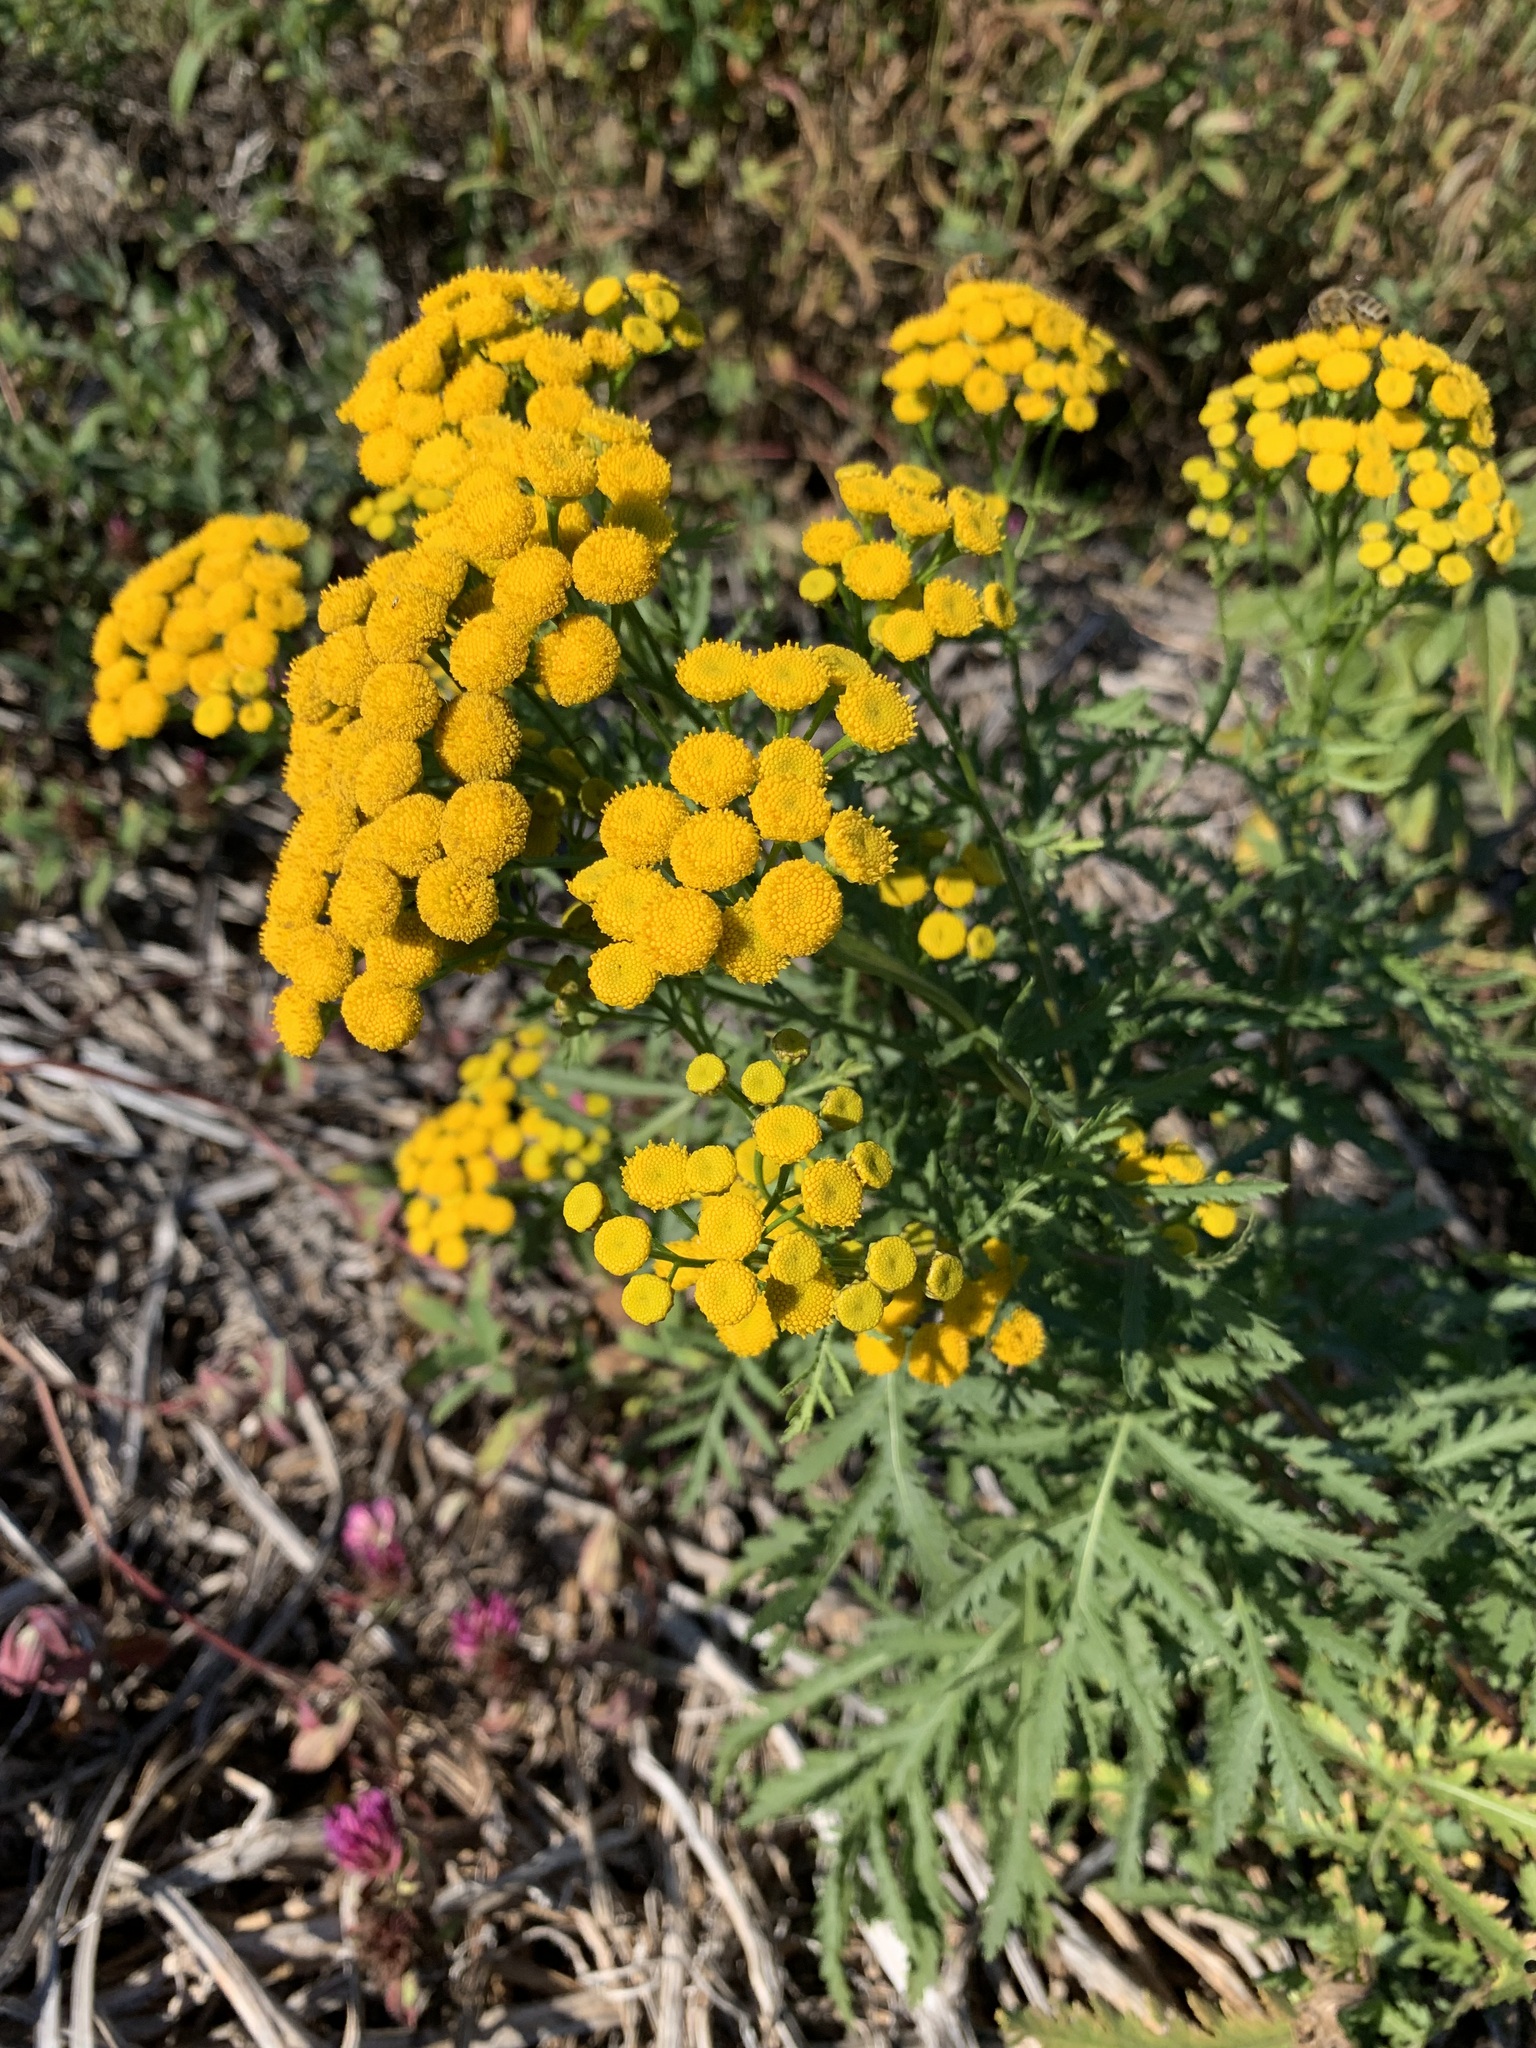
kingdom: Plantae
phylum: Tracheophyta
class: Magnoliopsida
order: Asterales
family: Asteraceae
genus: Tanacetum
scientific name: Tanacetum vulgare
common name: Common tansy
